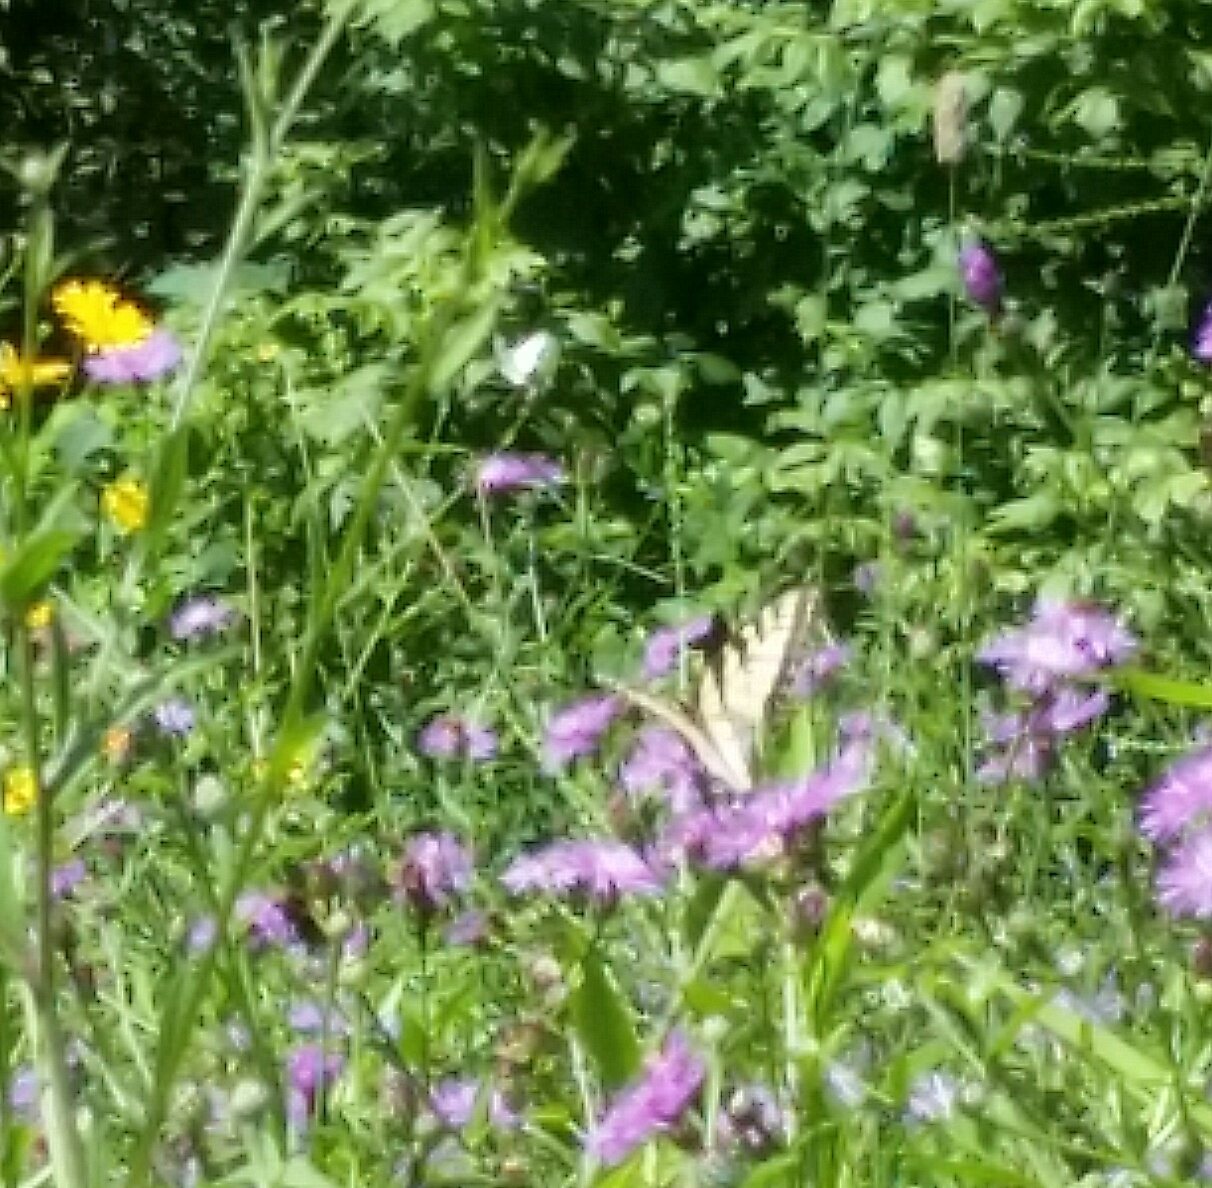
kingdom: Animalia
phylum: Arthropoda
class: Insecta
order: Lepidoptera
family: Papilionidae
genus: Papilio
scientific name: Papilio glaucus
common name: Tiger swallowtail
